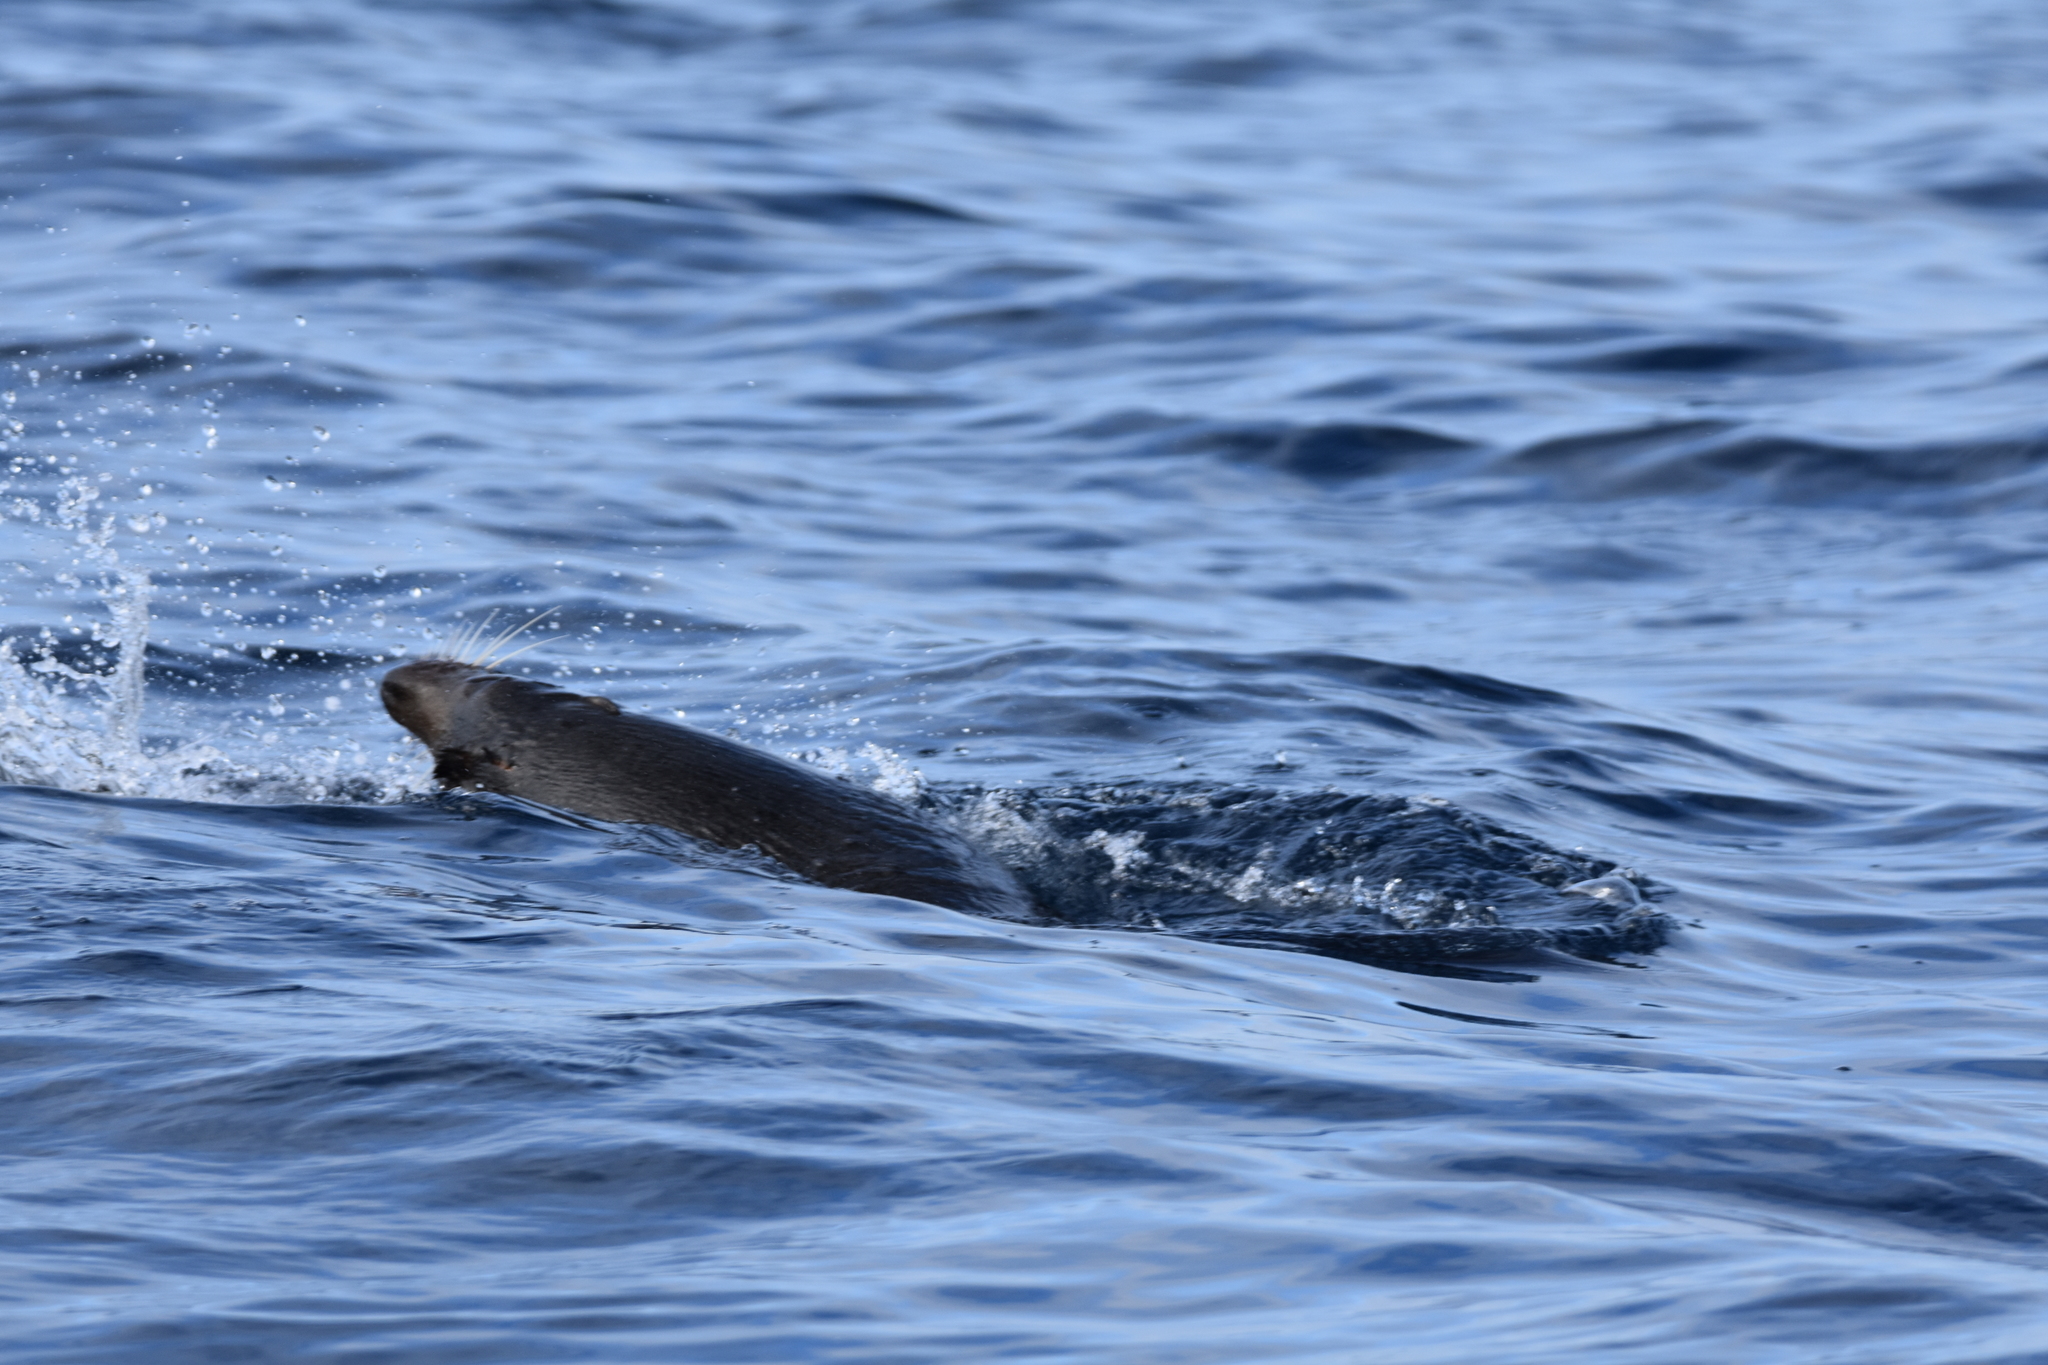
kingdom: Animalia
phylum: Chordata
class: Mammalia
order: Carnivora
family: Otariidae
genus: Arctocephalus
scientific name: Arctocephalus forsteri
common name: New zealand fur seal
